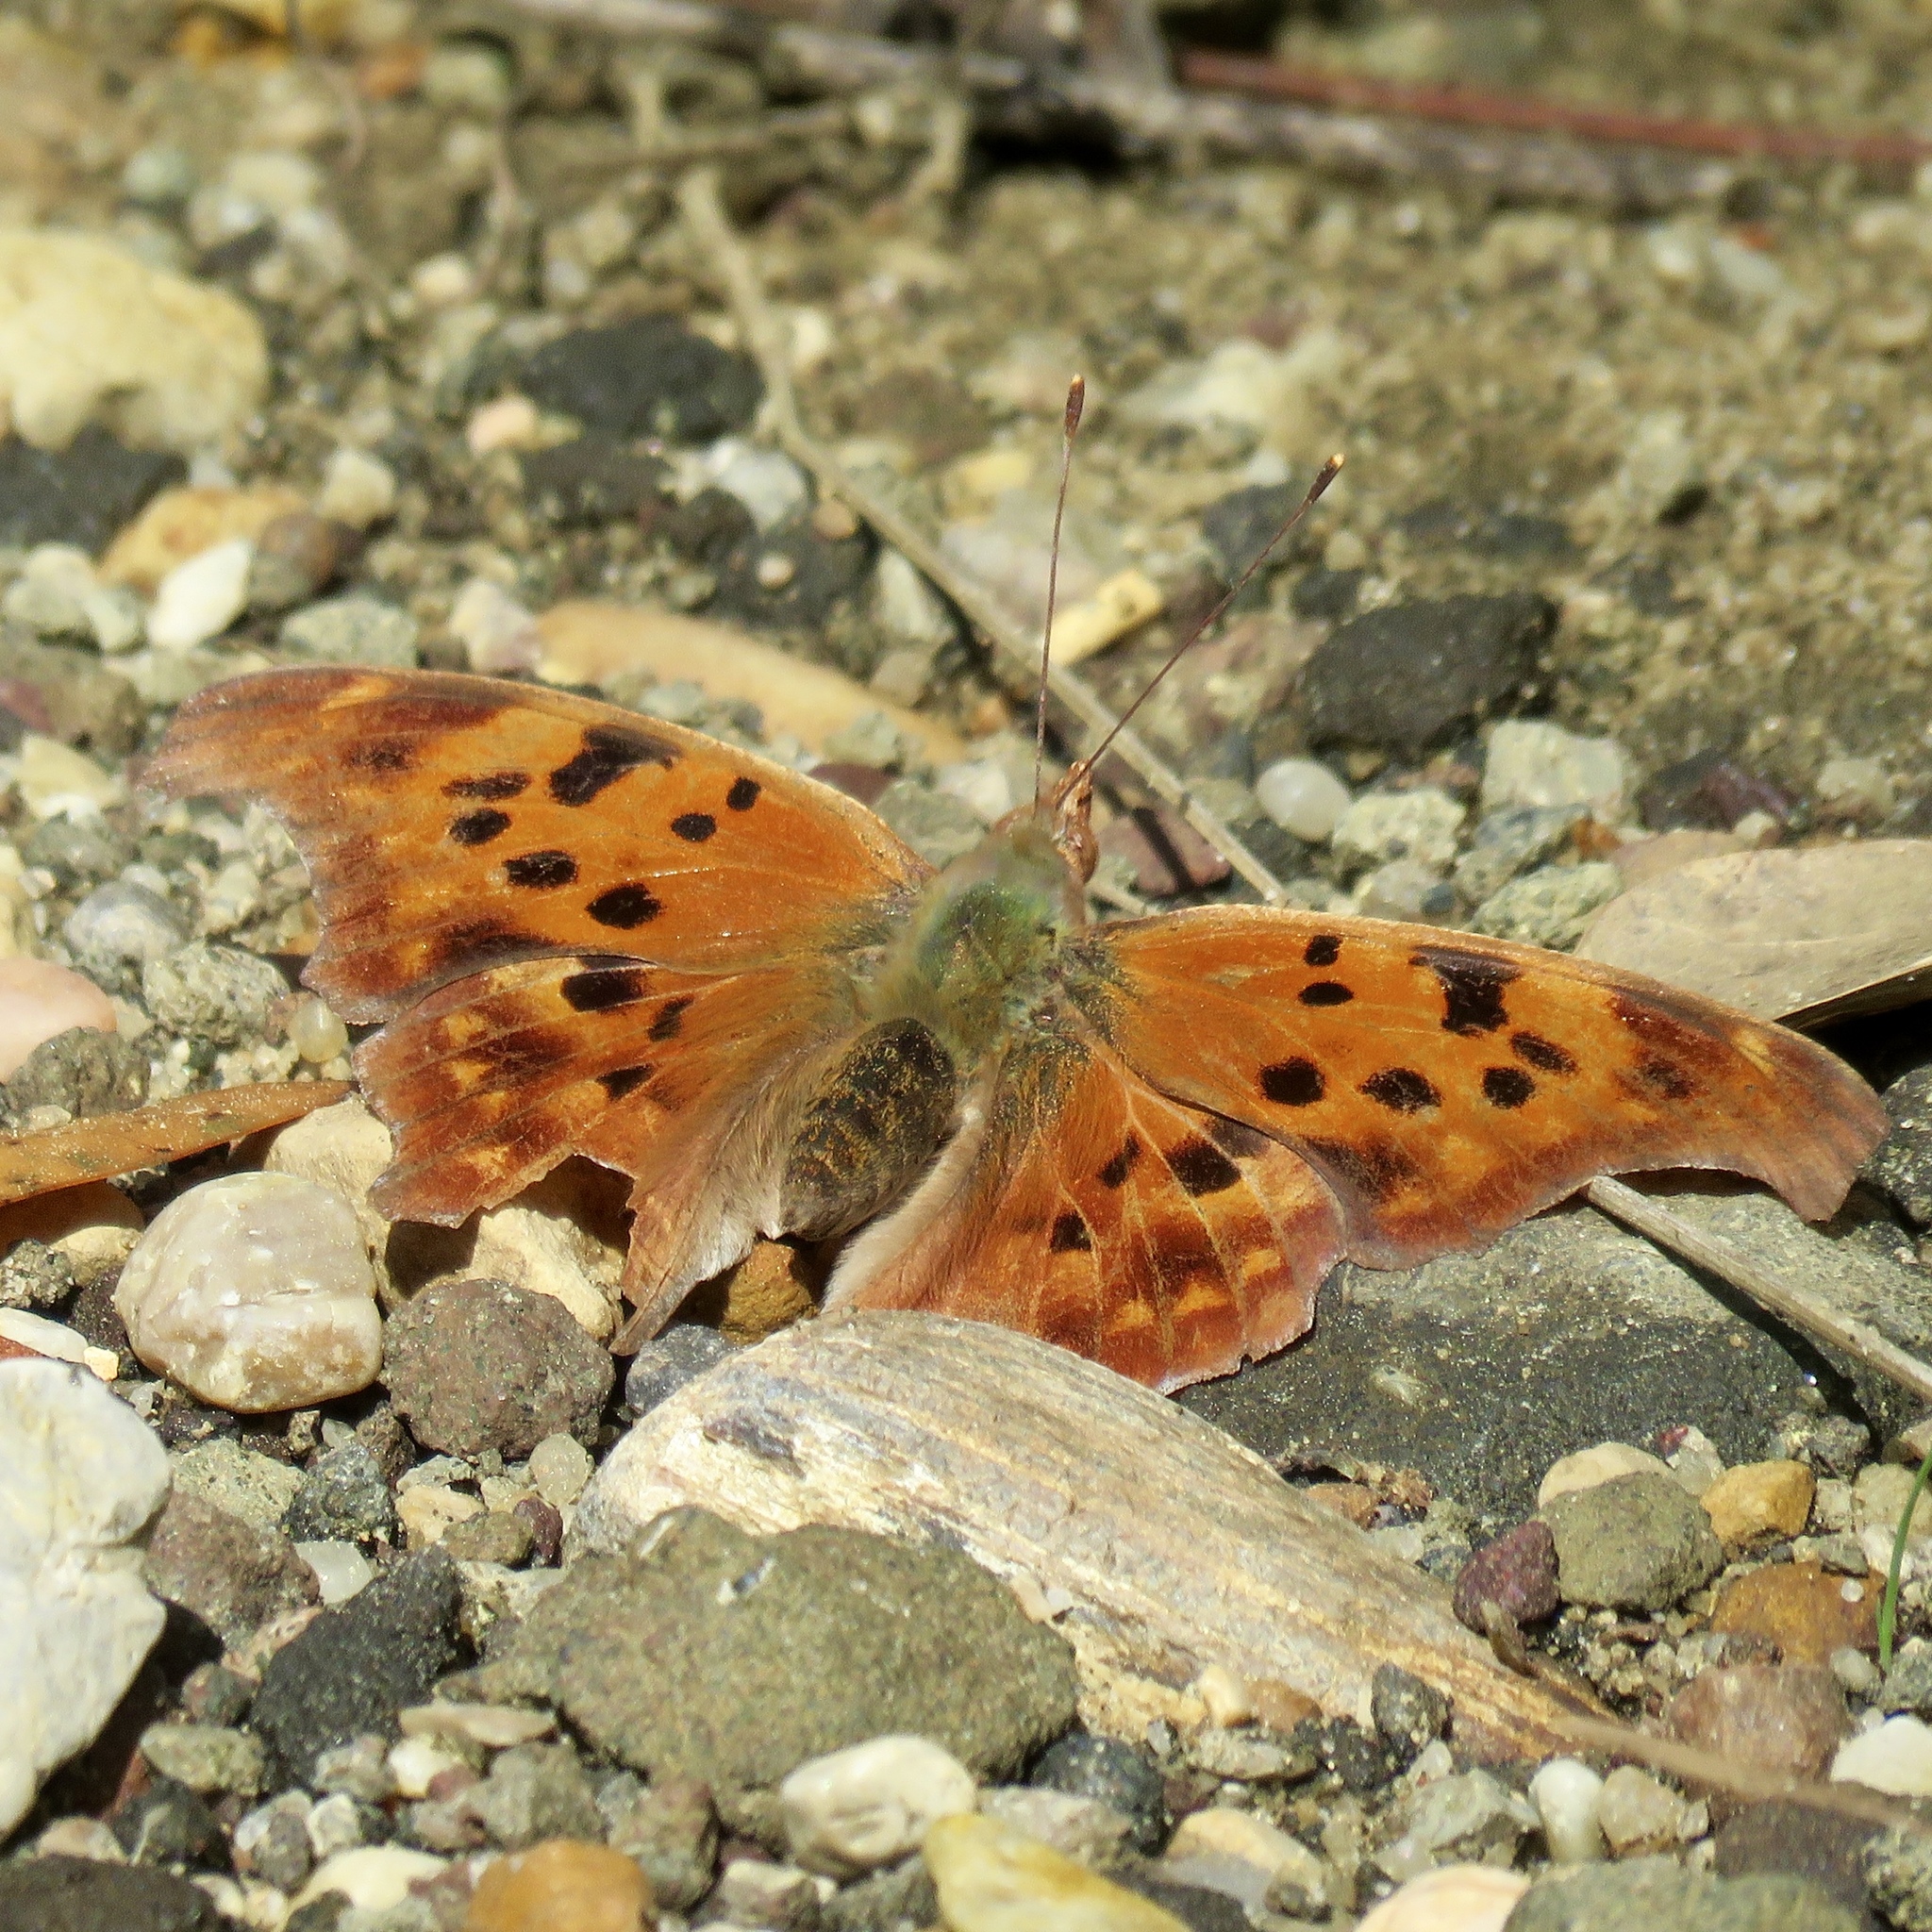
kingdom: Animalia
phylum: Arthropoda
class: Insecta
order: Lepidoptera
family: Nymphalidae
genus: Polygonia
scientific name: Polygonia interrogationis
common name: Question mark
